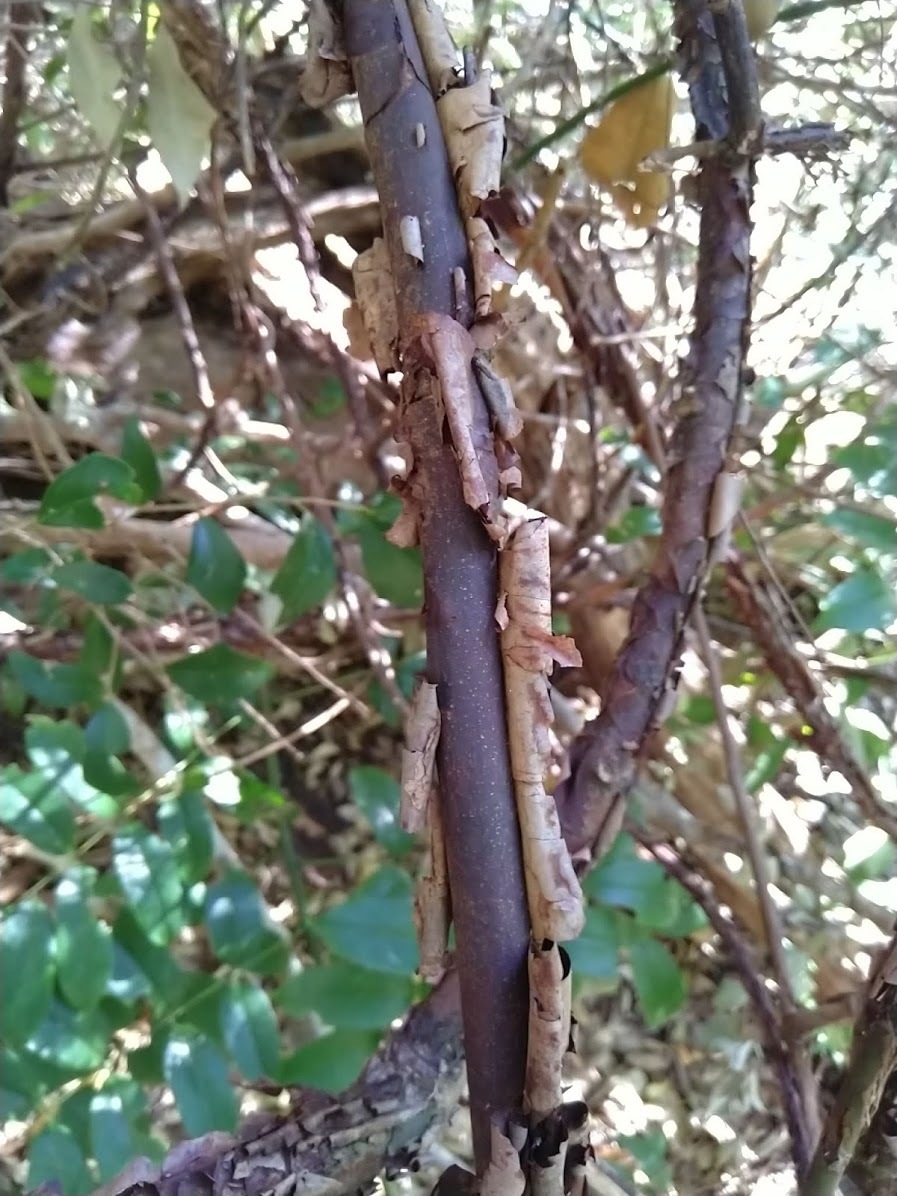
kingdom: Plantae
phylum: Tracheophyta
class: Magnoliopsida
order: Fabales
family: Fabaceae
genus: Austrocallerya
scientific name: Austrocallerya megasperma
